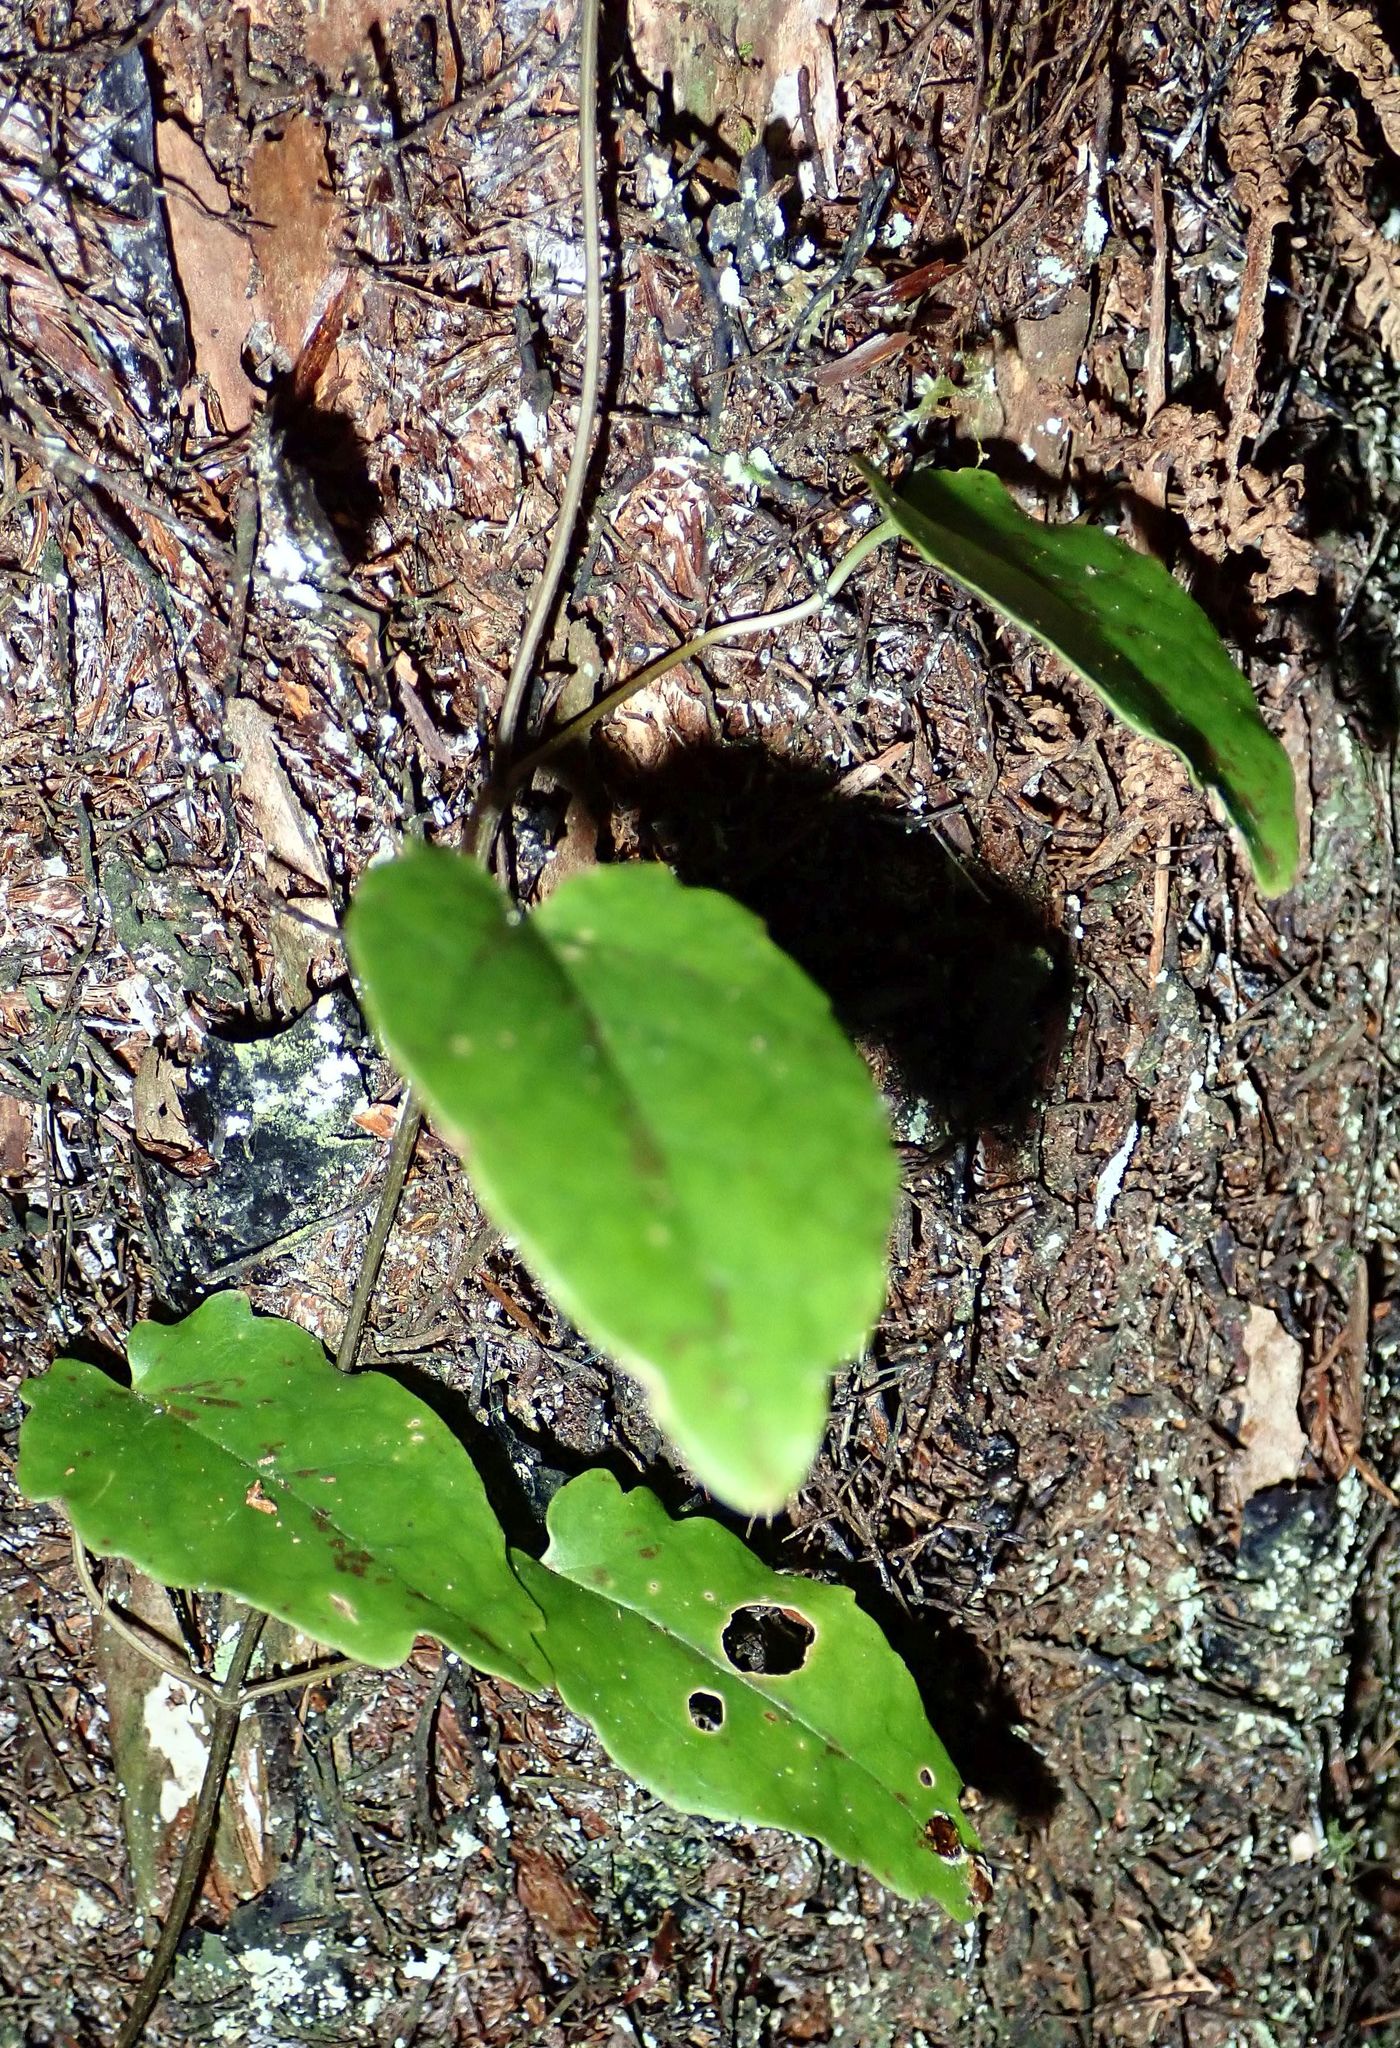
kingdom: Plantae
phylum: Tracheophyta
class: Magnoliopsida
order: Ranunculales
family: Ranunculaceae
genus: Clematis
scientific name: Clematis paniculata
